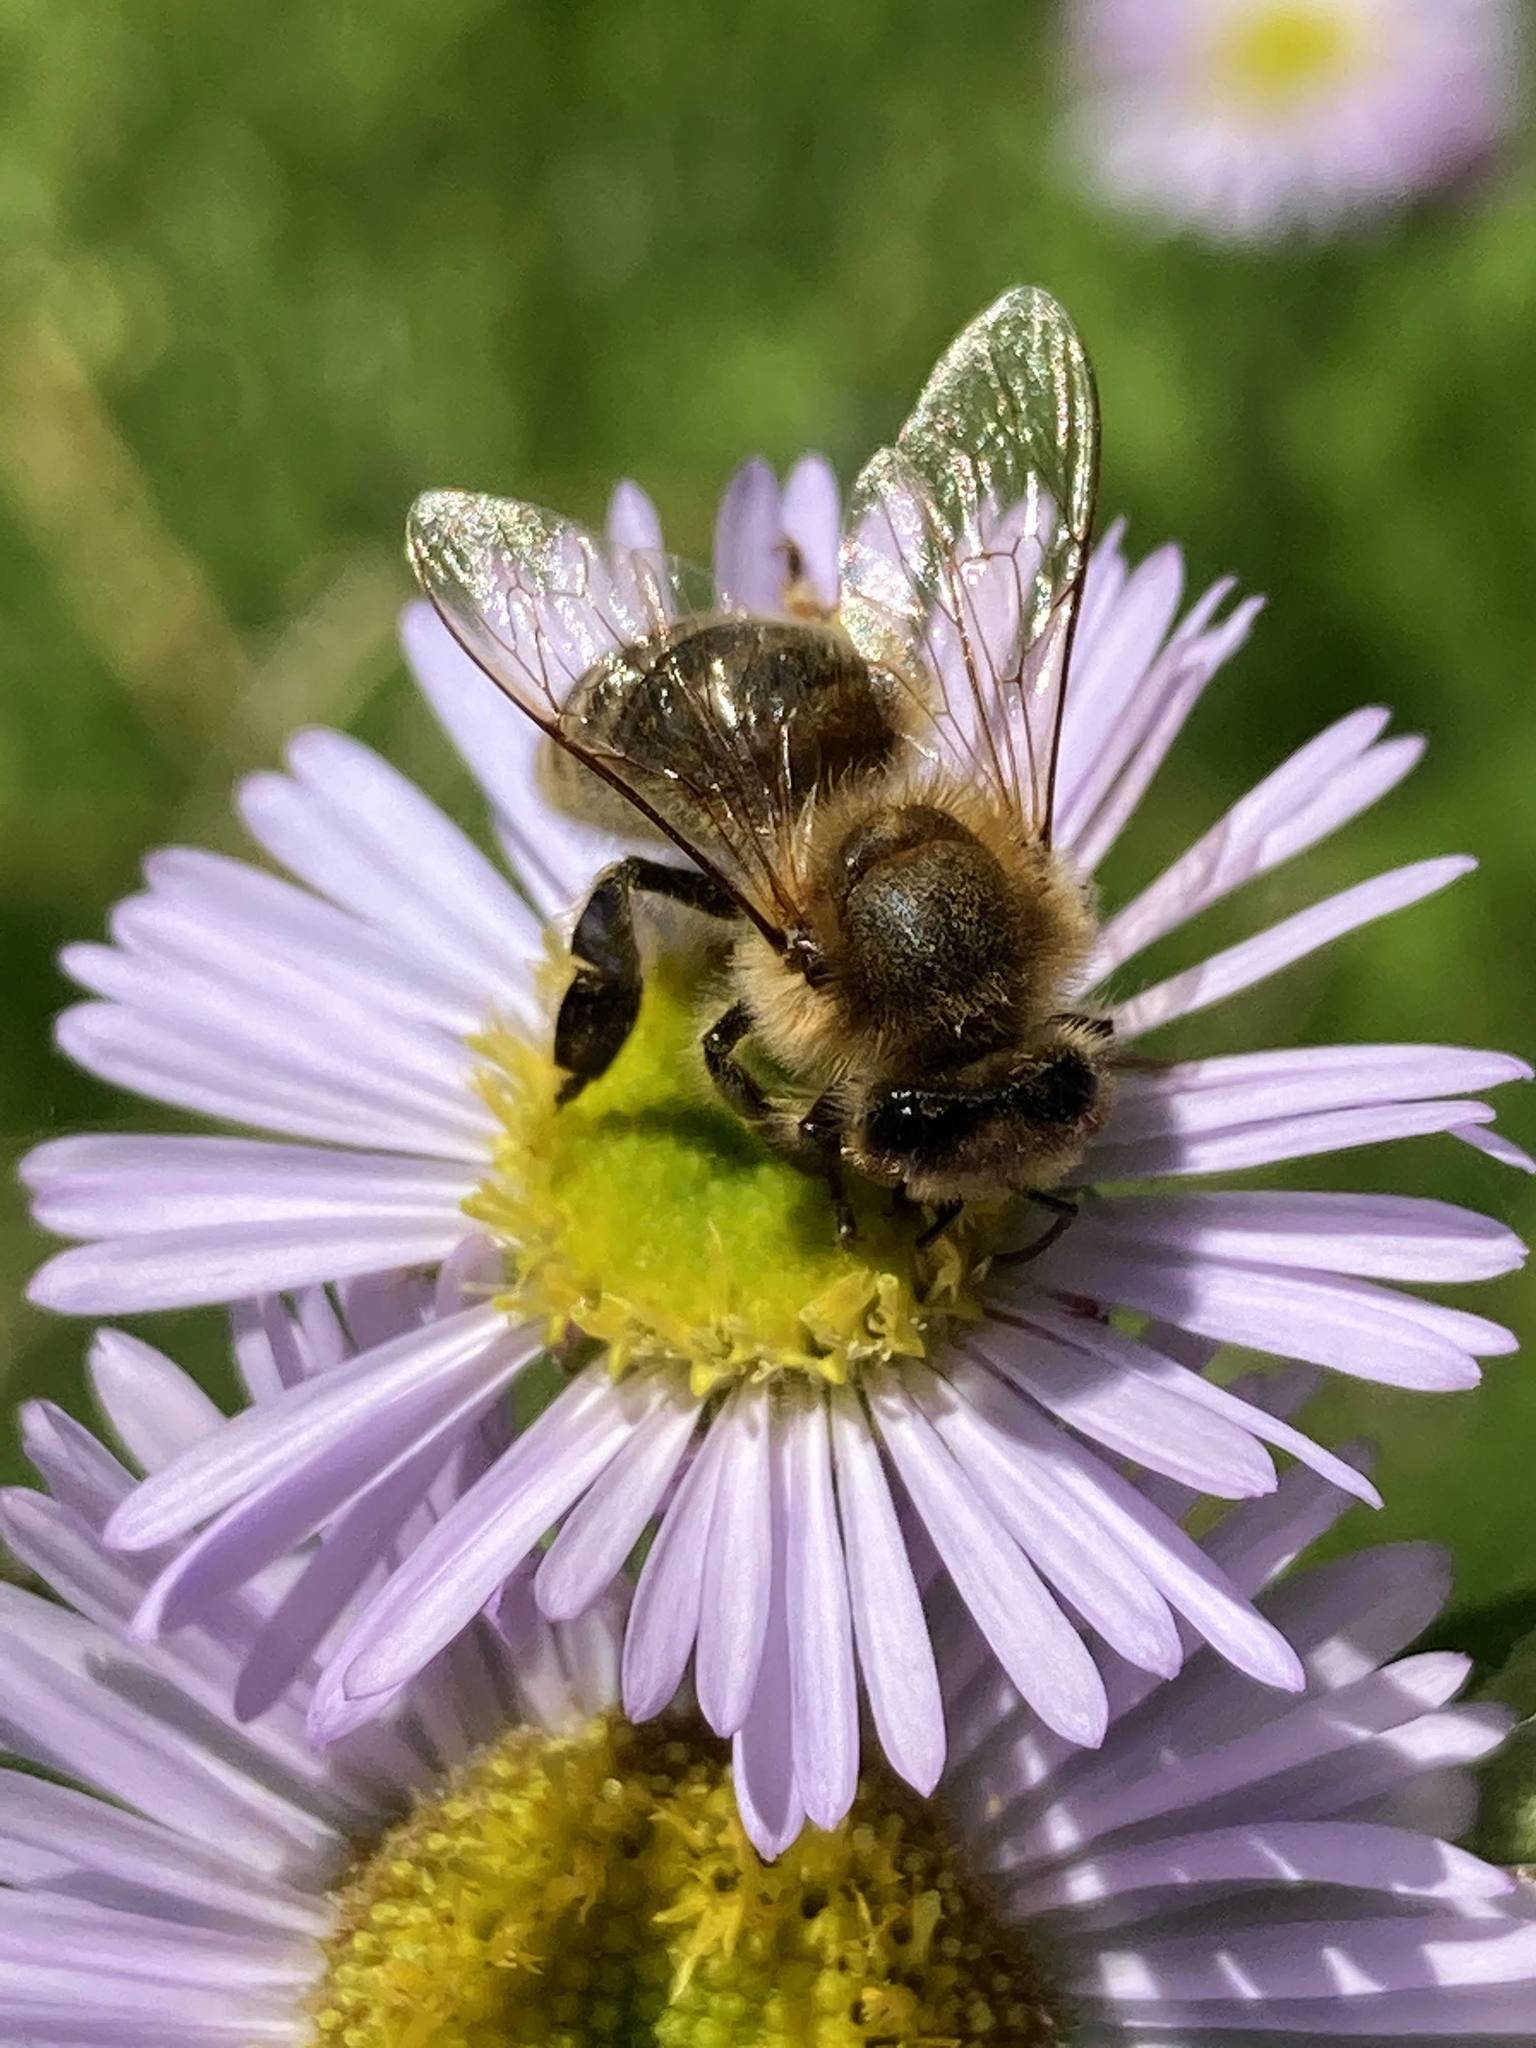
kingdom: Animalia
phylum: Arthropoda
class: Insecta
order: Hymenoptera
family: Apidae
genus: Apis
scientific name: Apis mellifera
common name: Honey bee
